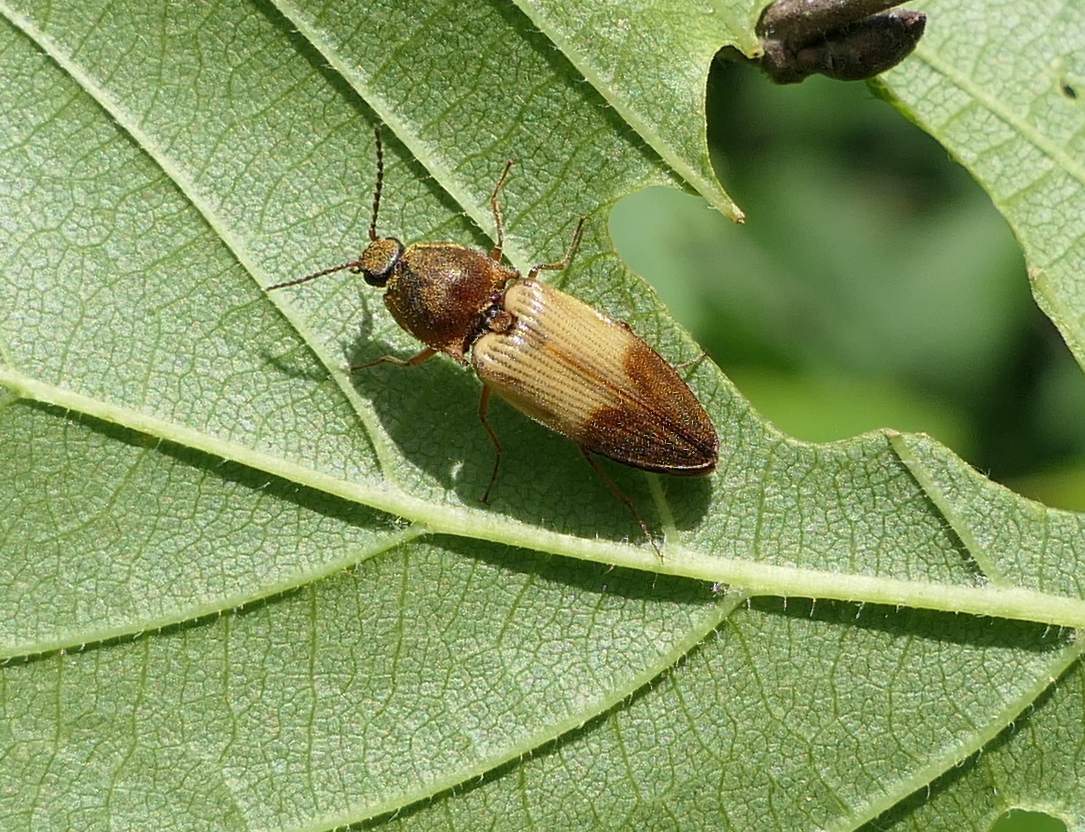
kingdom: Animalia
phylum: Arthropoda
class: Insecta
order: Coleoptera
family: Elateridae
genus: Stropenron
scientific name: Stropenron hamata
